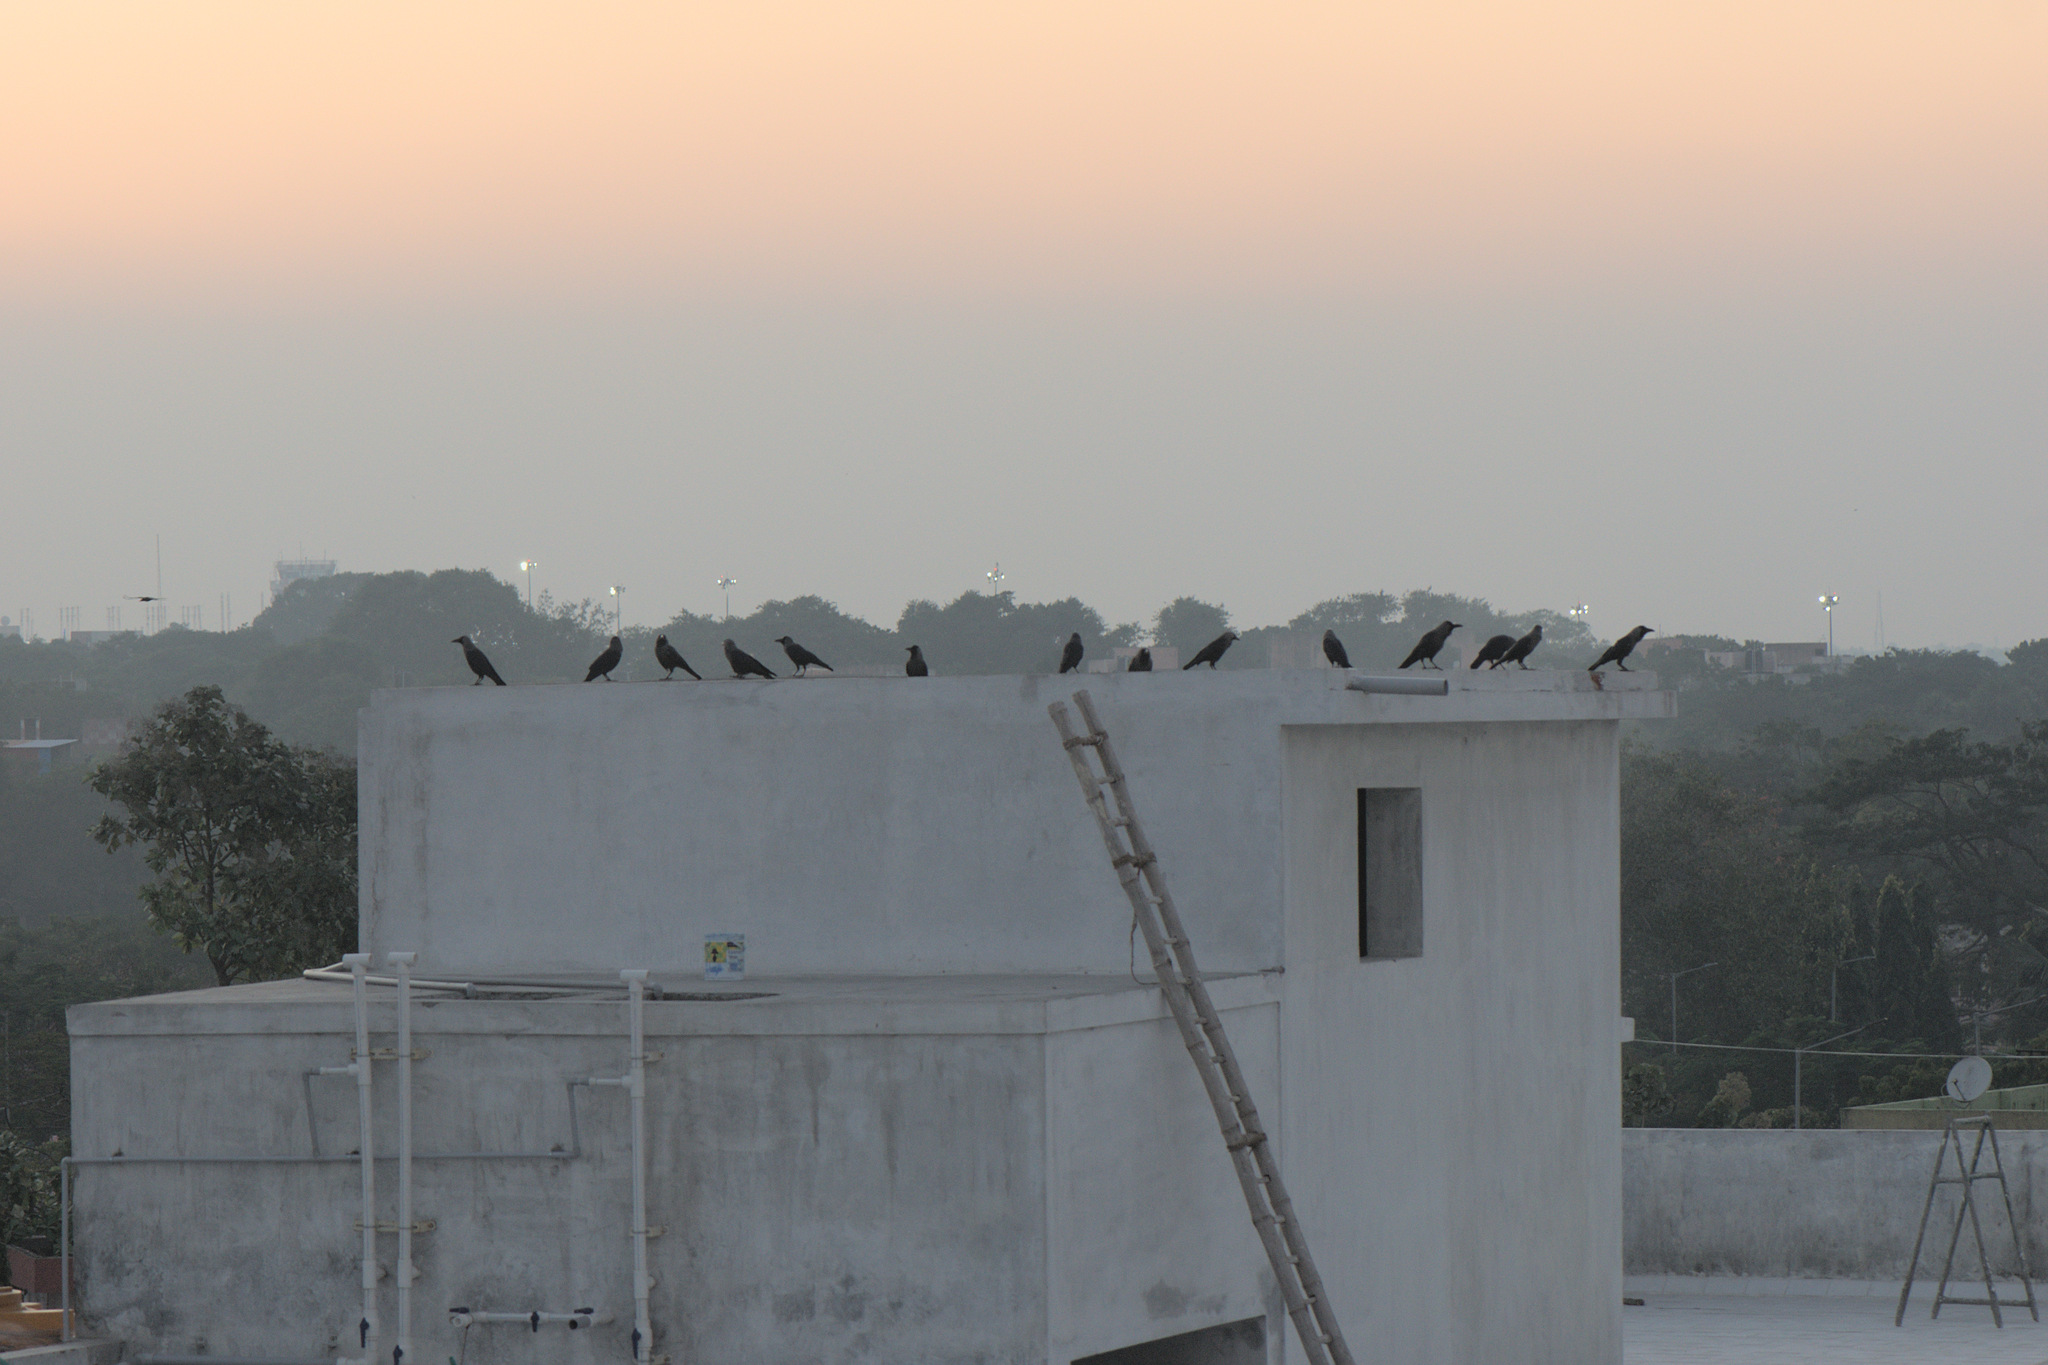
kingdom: Animalia
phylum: Chordata
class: Aves
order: Passeriformes
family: Corvidae
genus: Corvus
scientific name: Corvus splendens
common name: House crow
